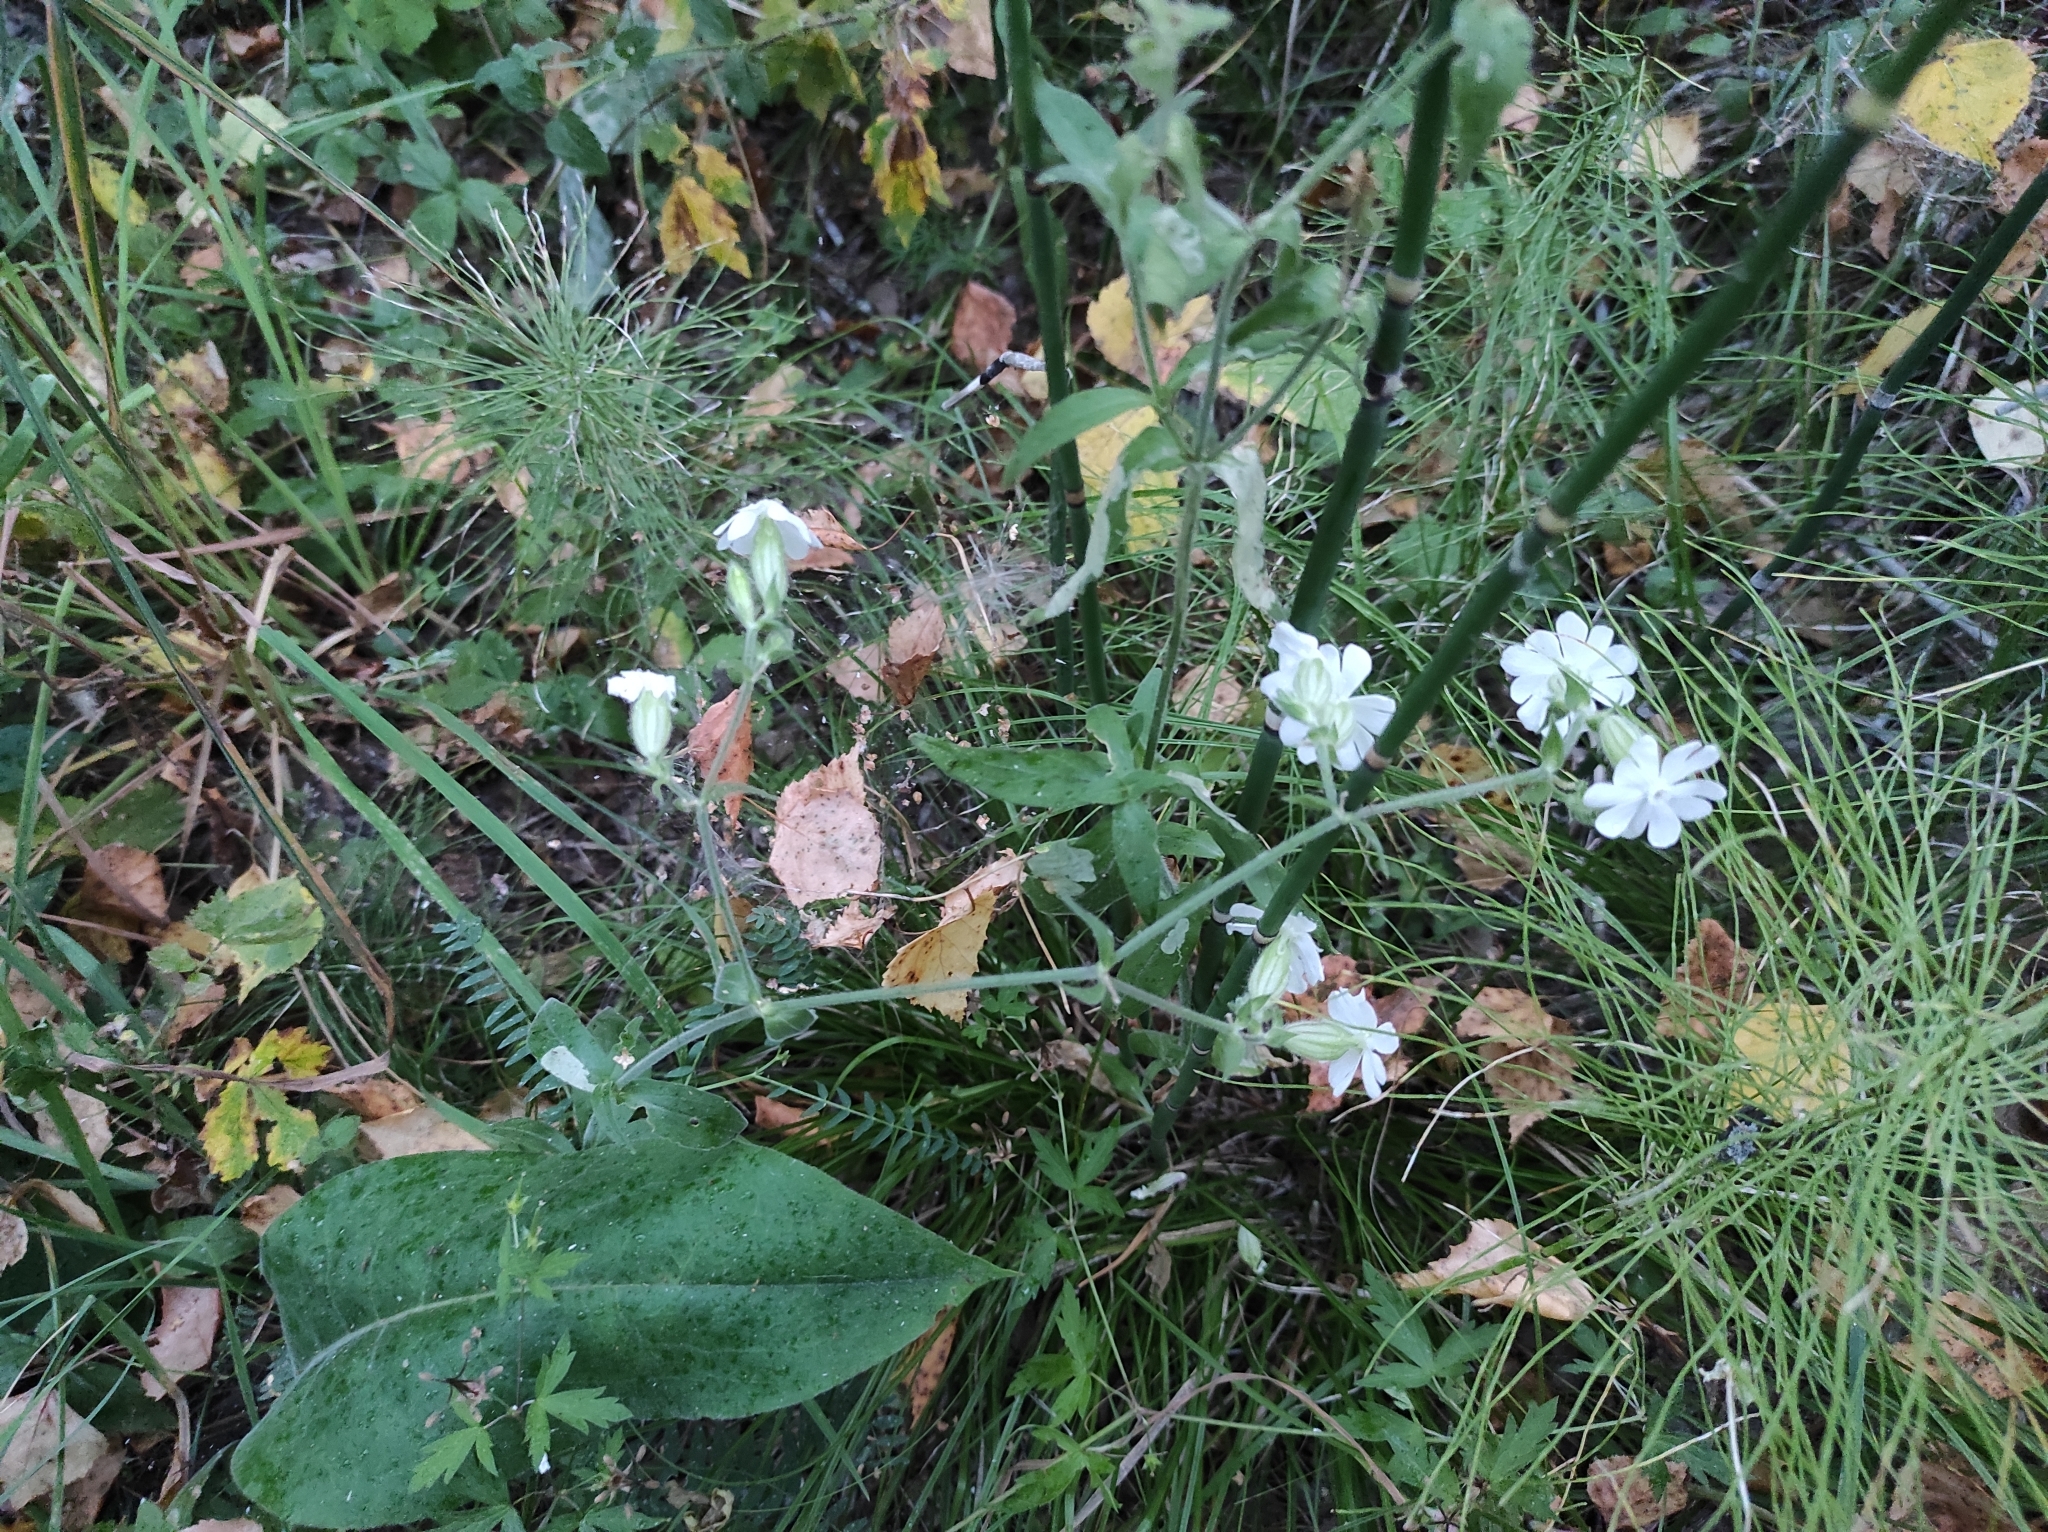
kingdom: Plantae
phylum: Tracheophyta
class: Magnoliopsida
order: Caryophyllales
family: Caryophyllaceae
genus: Silene
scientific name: Silene latifolia
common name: White campion
